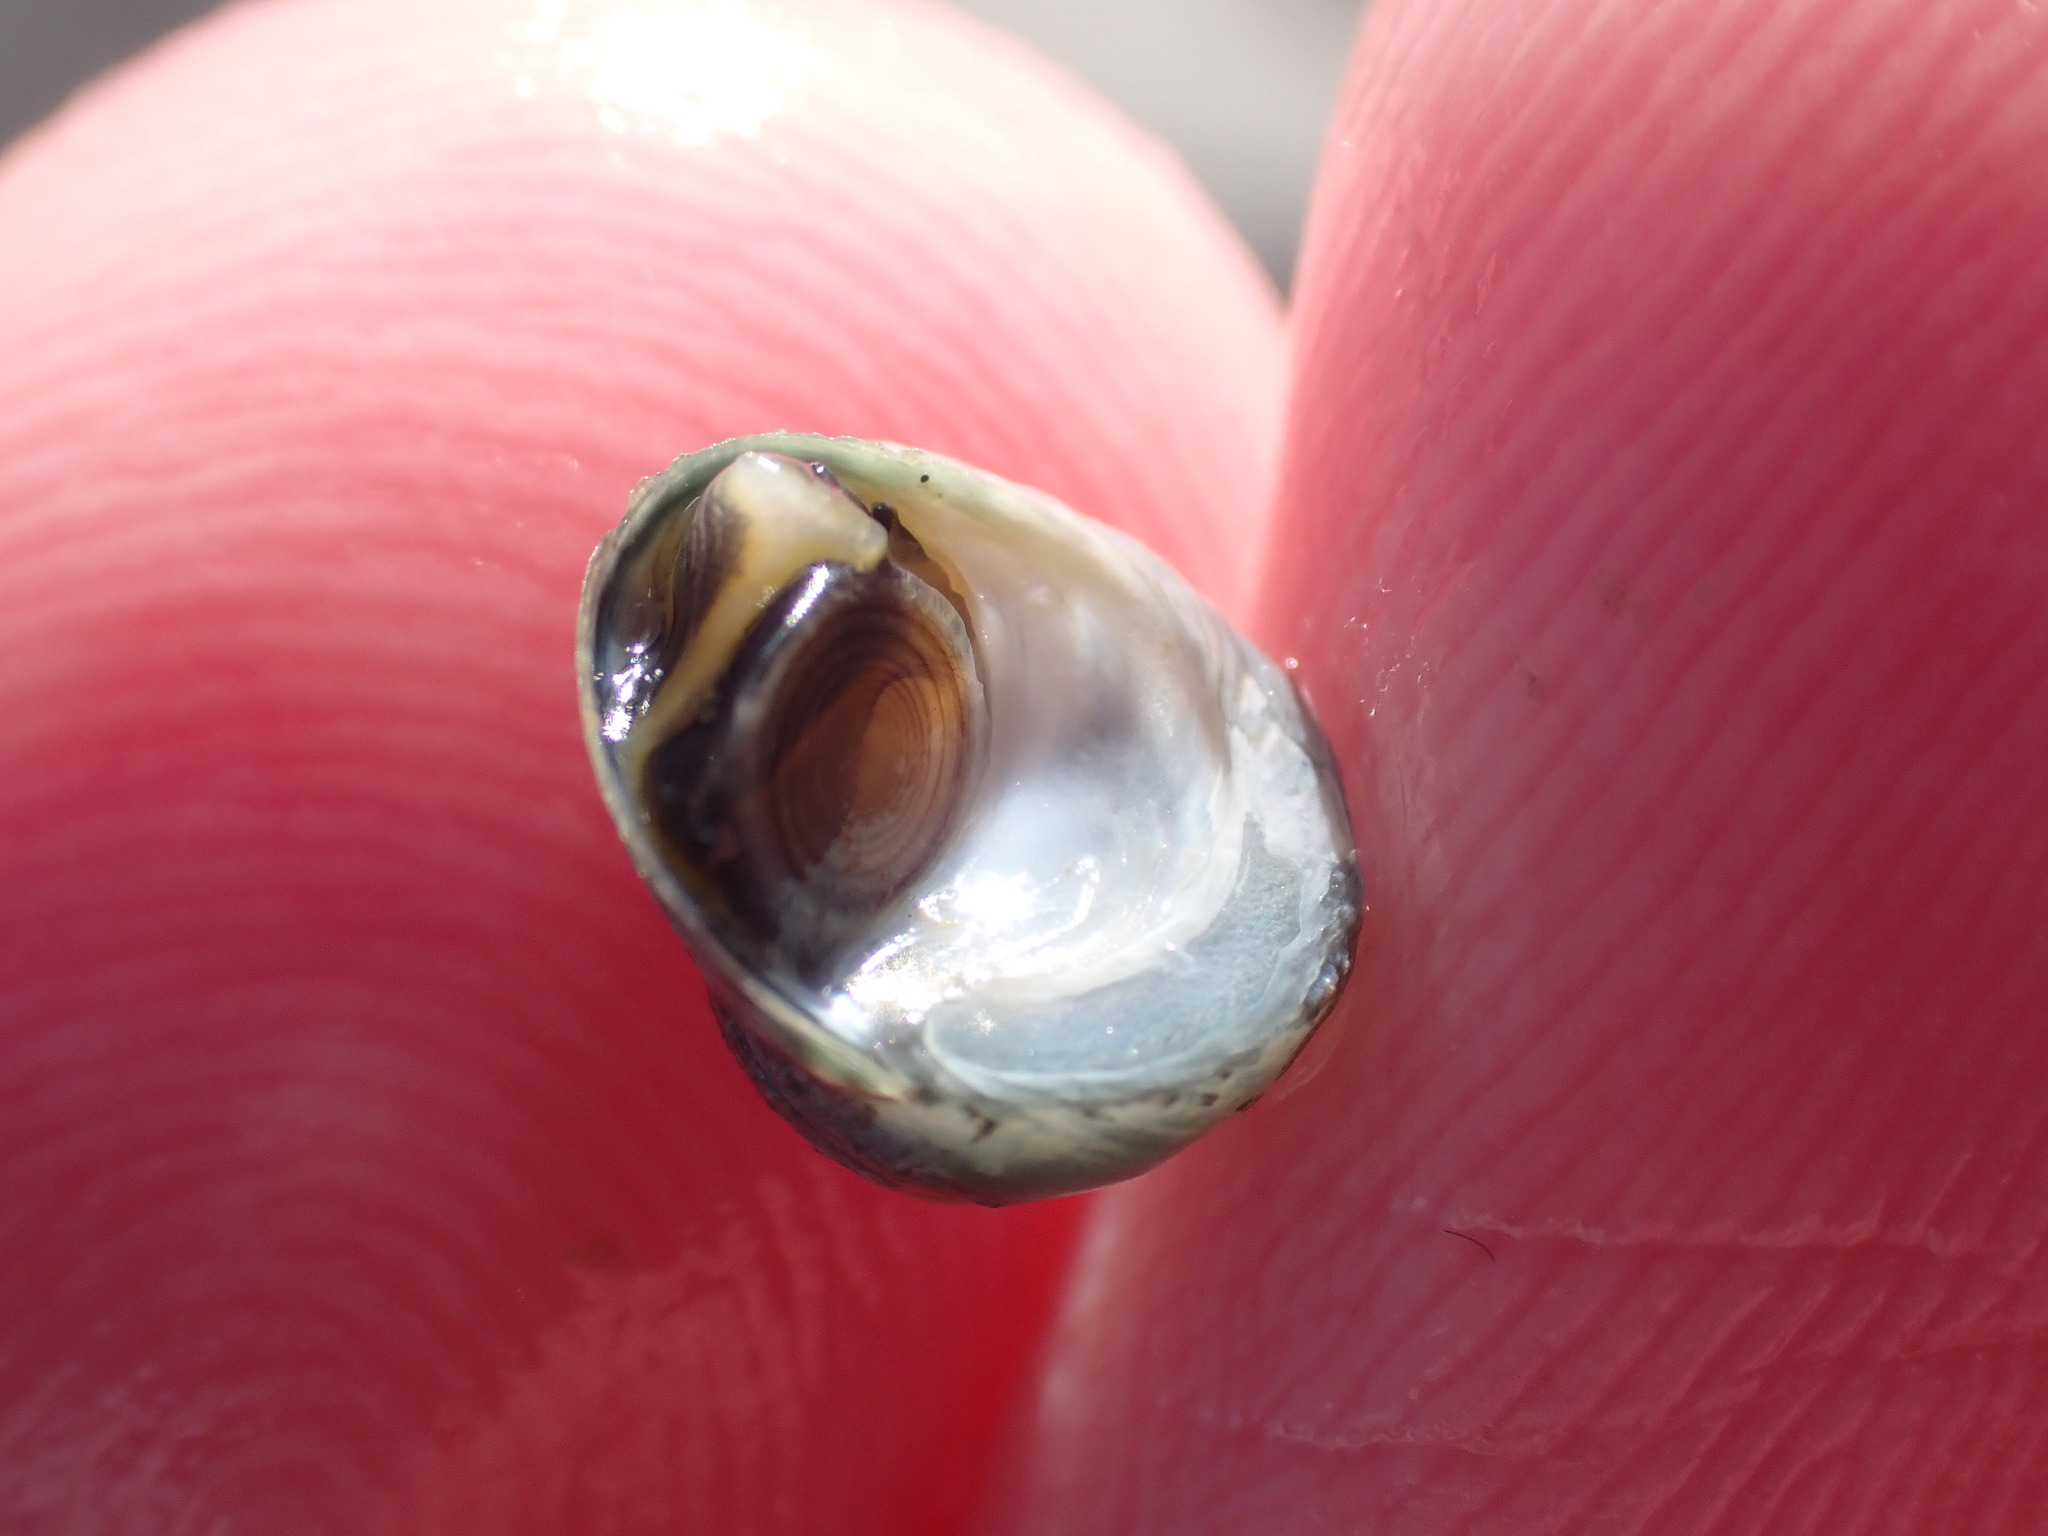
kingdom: Animalia
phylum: Mollusca
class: Gastropoda
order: Trochida
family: Trochidae
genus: Diloma
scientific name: Diloma coracinum
